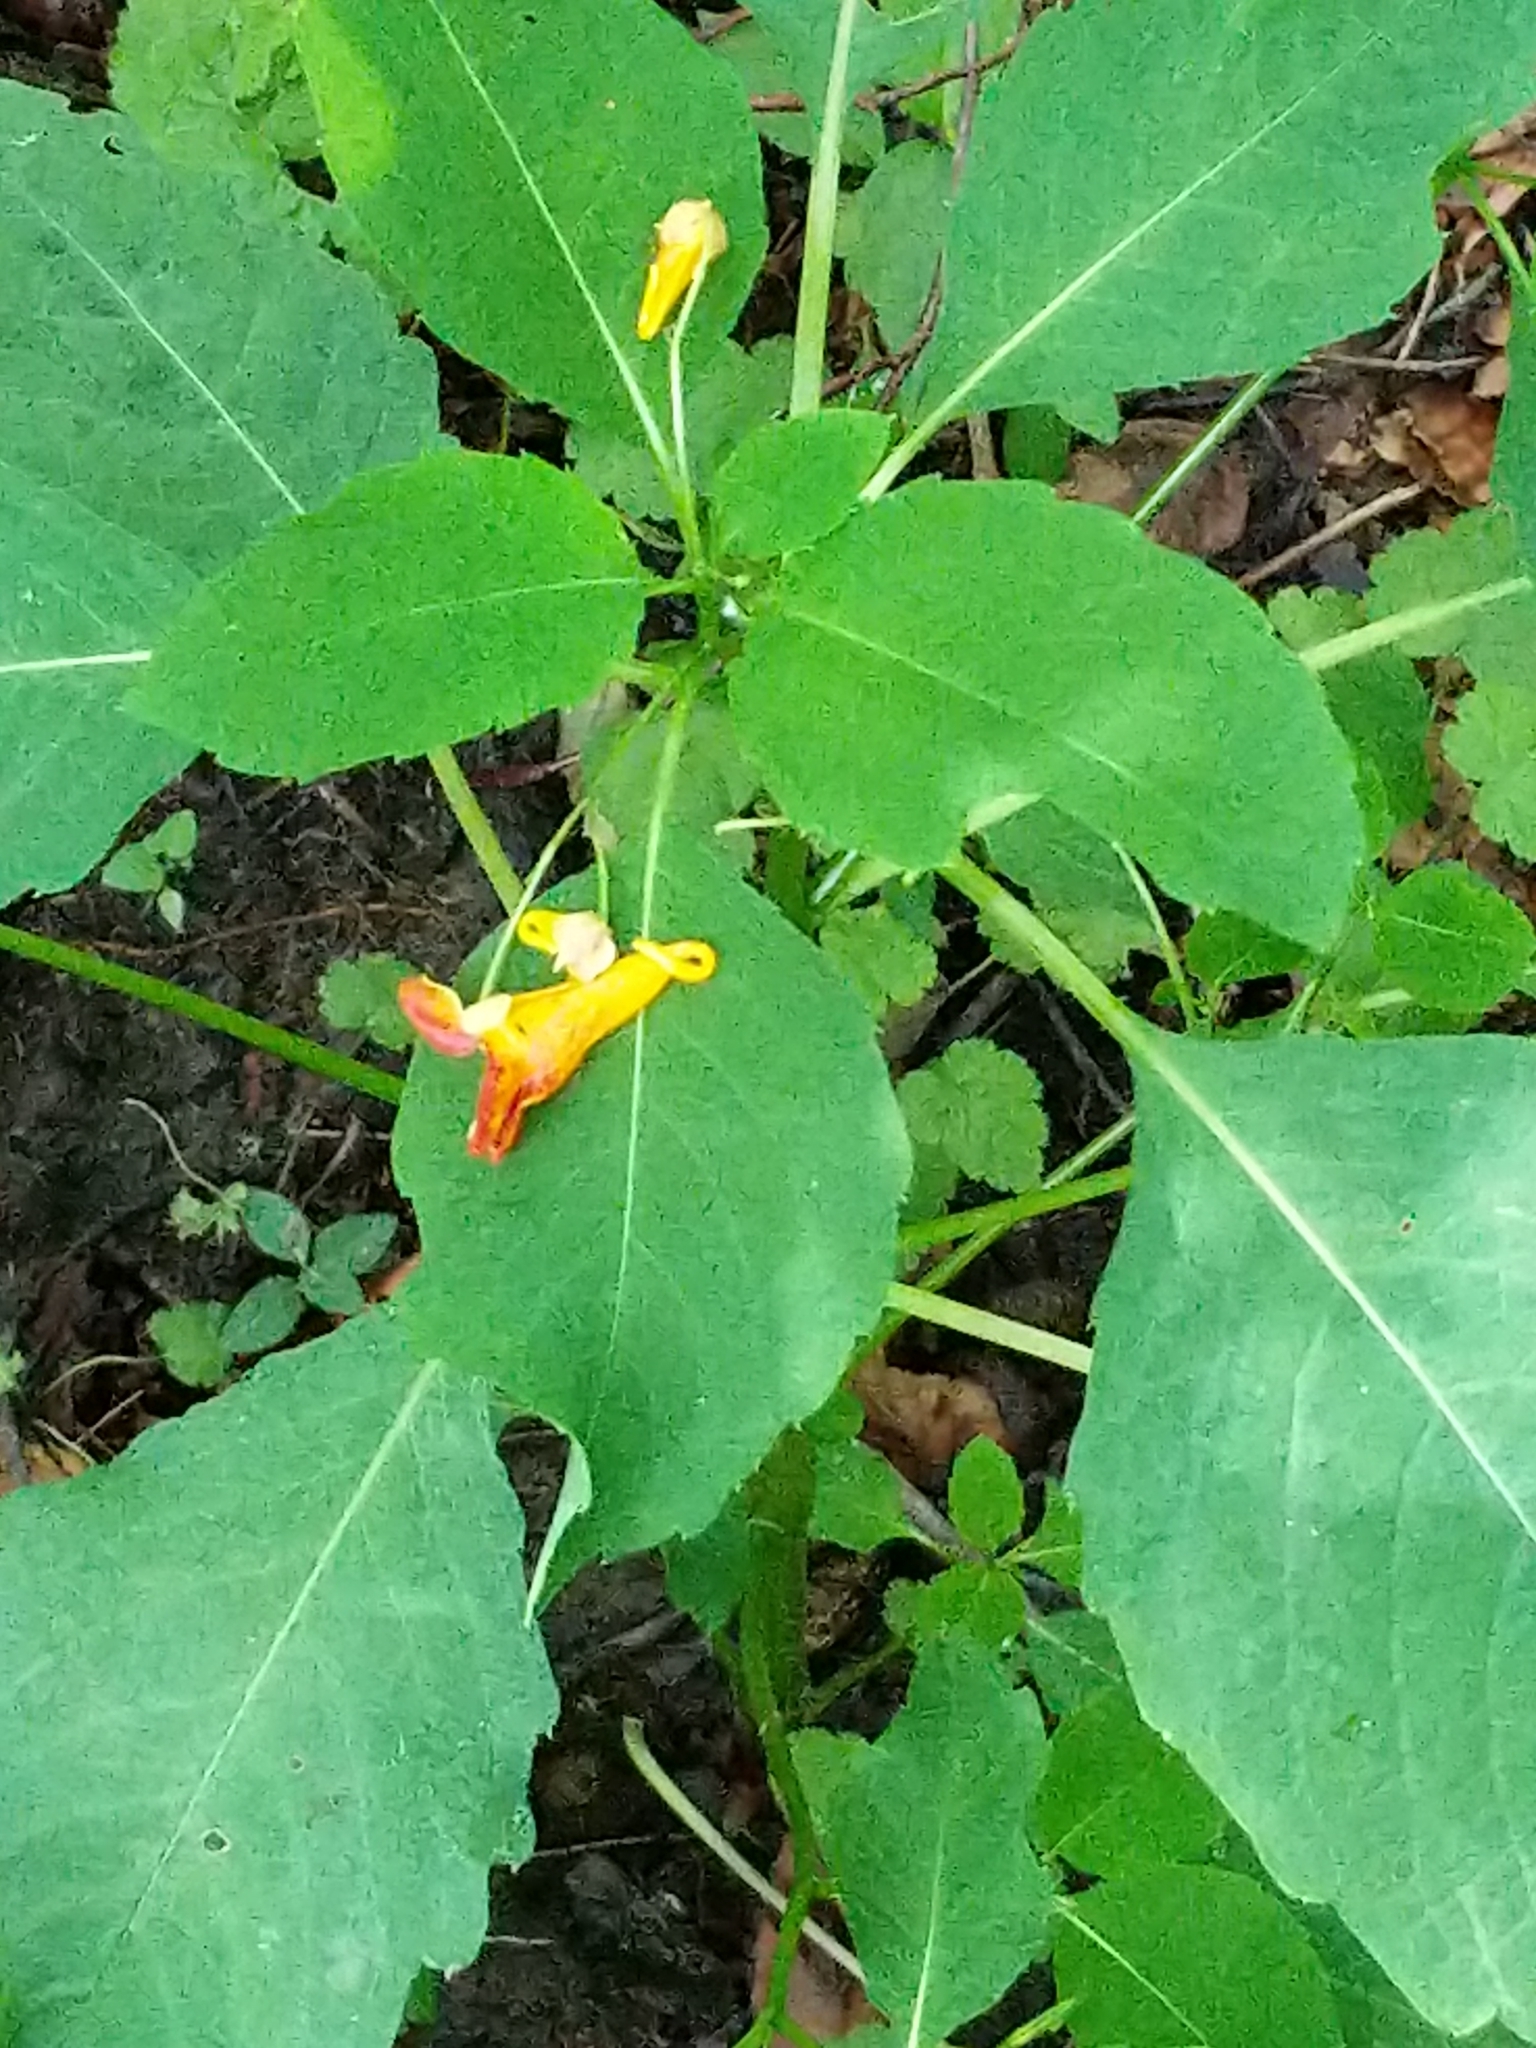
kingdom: Plantae
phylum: Tracheophyta
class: Magnoliopsida
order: Ericales
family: Balsaminaceae
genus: Impatiens
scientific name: Impatiens capensis
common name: Orange balsam
